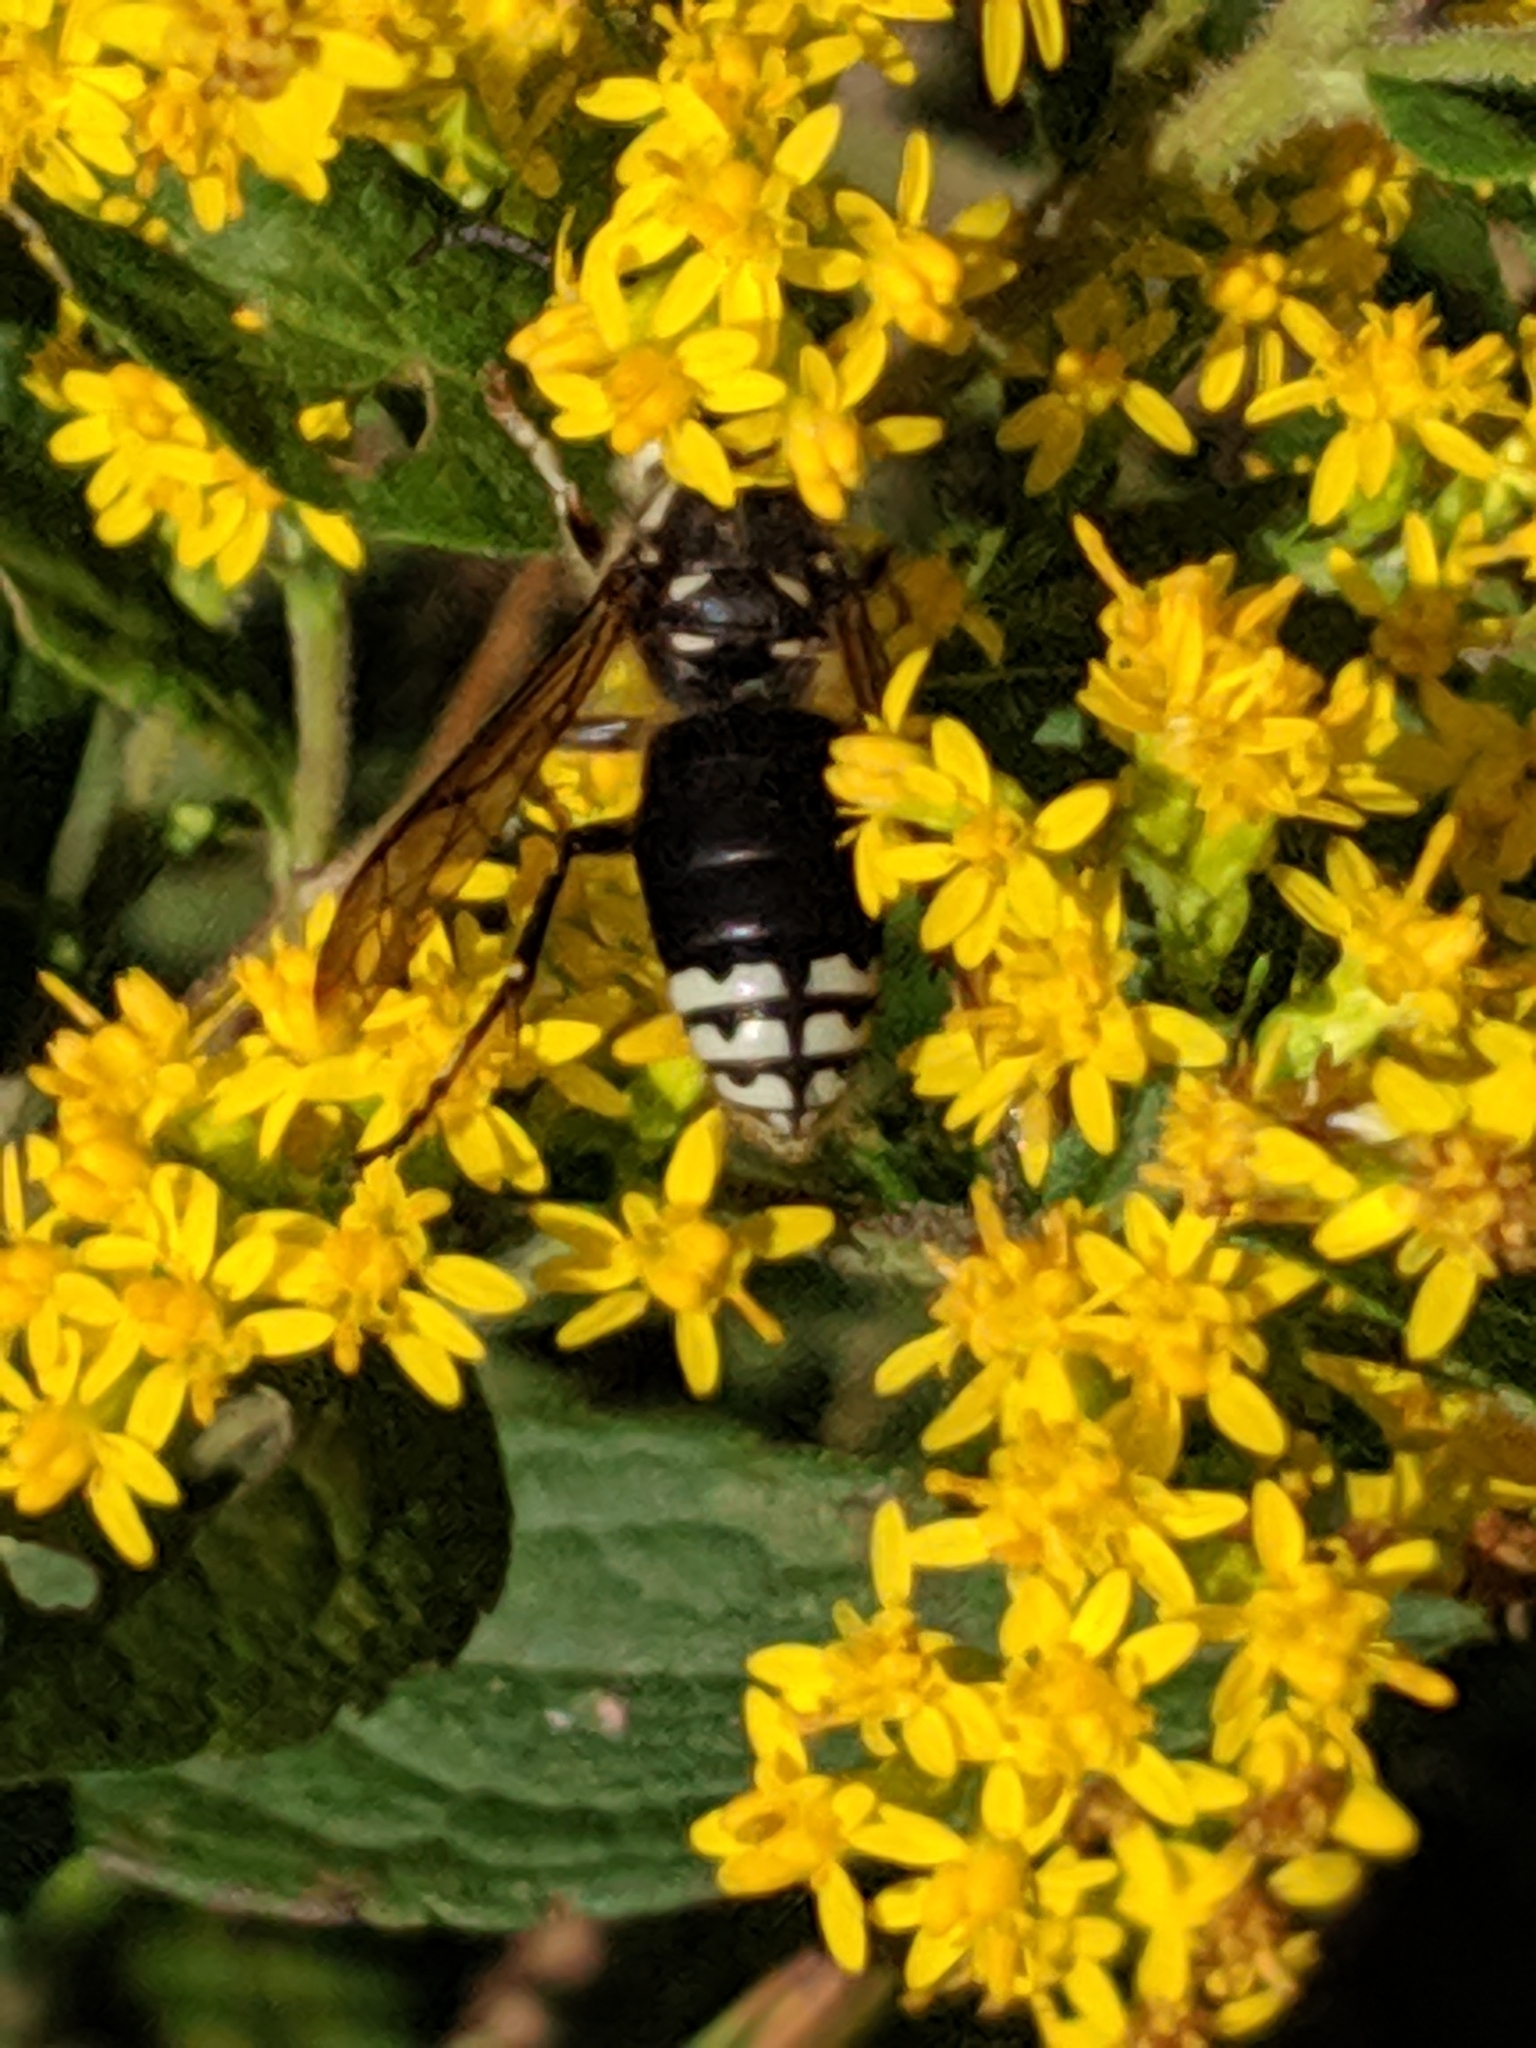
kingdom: Animalia
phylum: Arthropoda
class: Insecta
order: Hymenoptera
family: Vespidae
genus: Dolichovespula
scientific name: Dolichovespula maculata
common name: Bald-faced hornet
